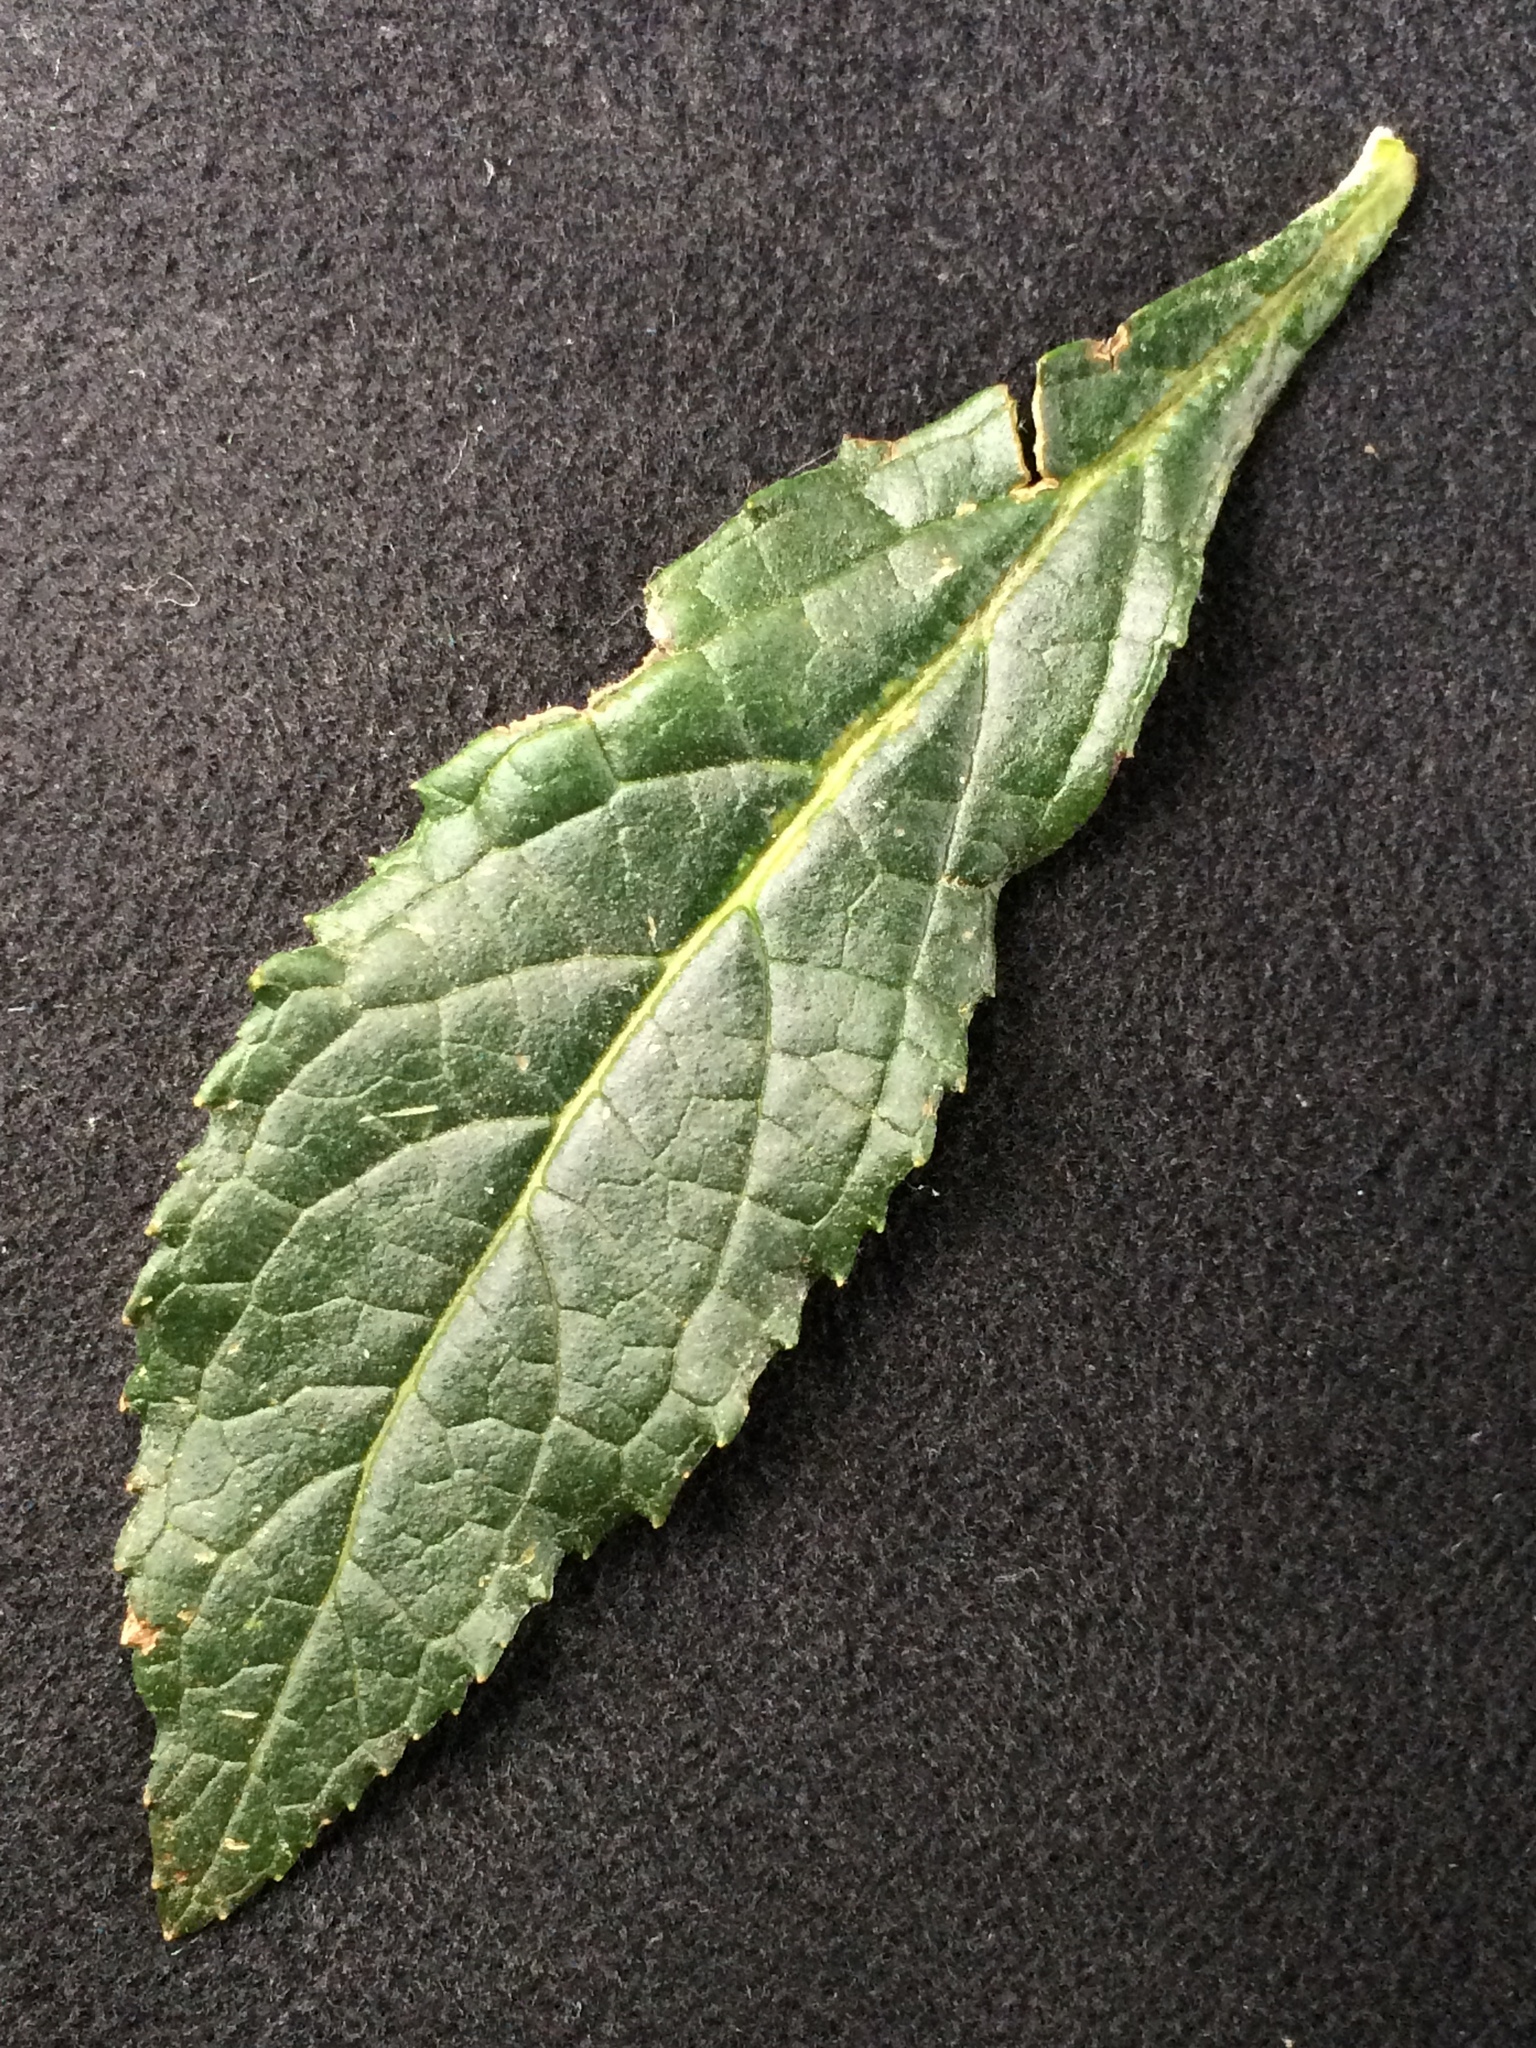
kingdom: Plantae
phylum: Tracheophyta
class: Magnoliopsida
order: Lamiales
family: Scrophulariaceae
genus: Buddleja
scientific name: Buddleja davidii
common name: Butterfly-bush
